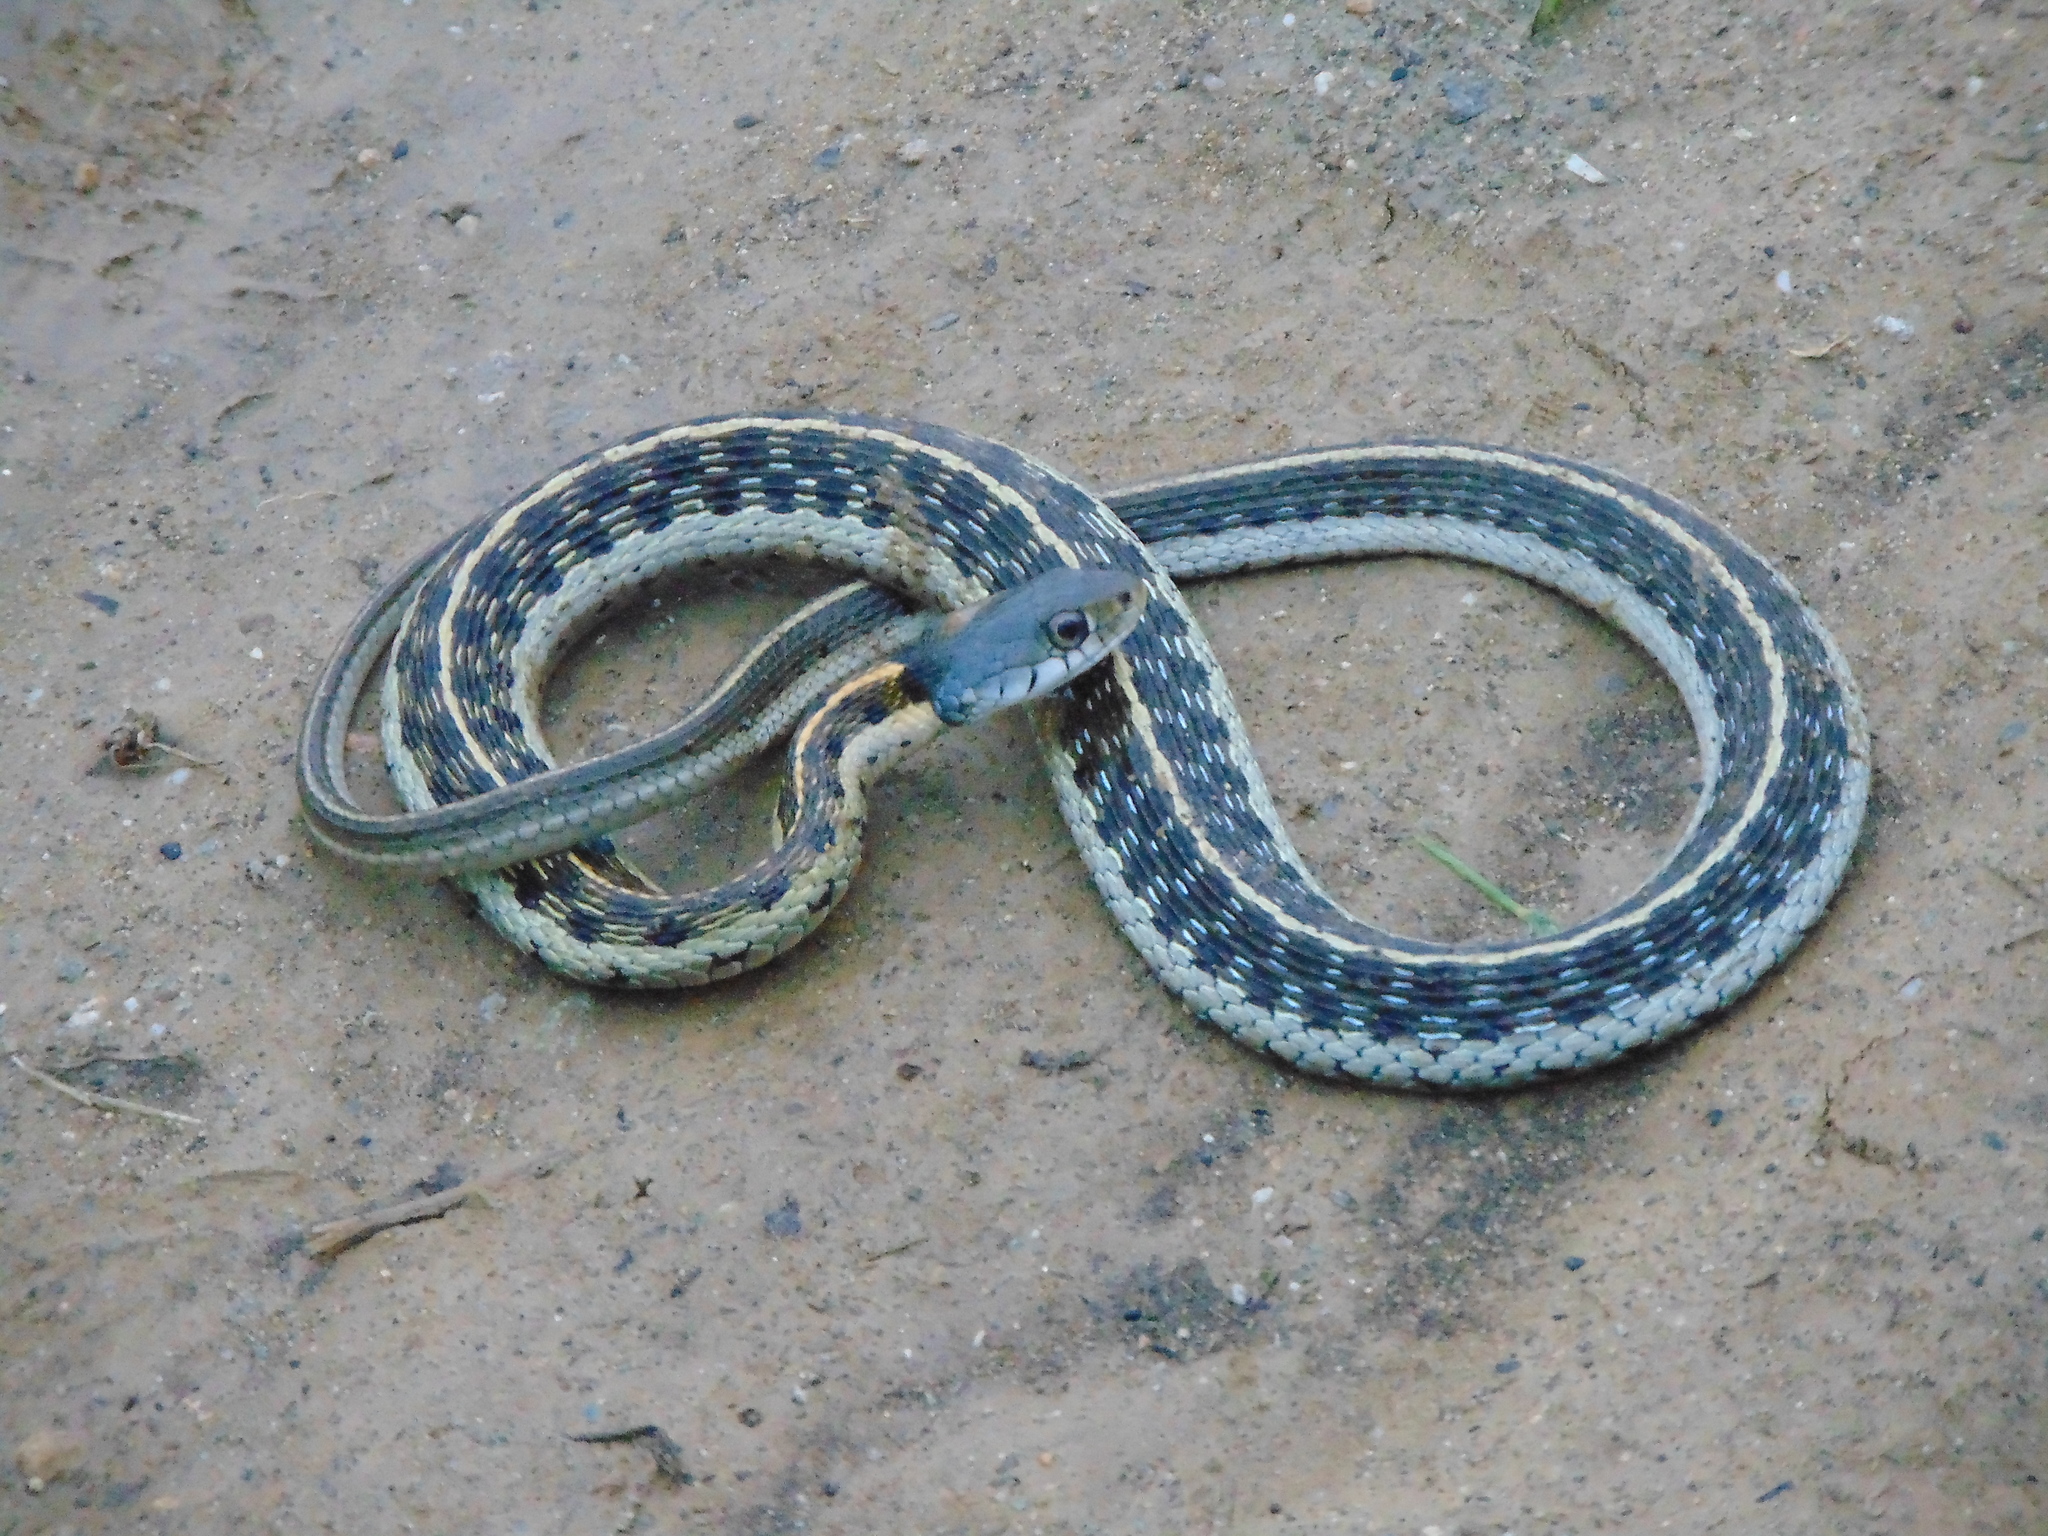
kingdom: Animalia
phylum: Chordata
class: Squamata
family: Colubridae
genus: Thamnophis
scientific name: Thamnophis cyrtopsis
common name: Black-necked gartersnake
